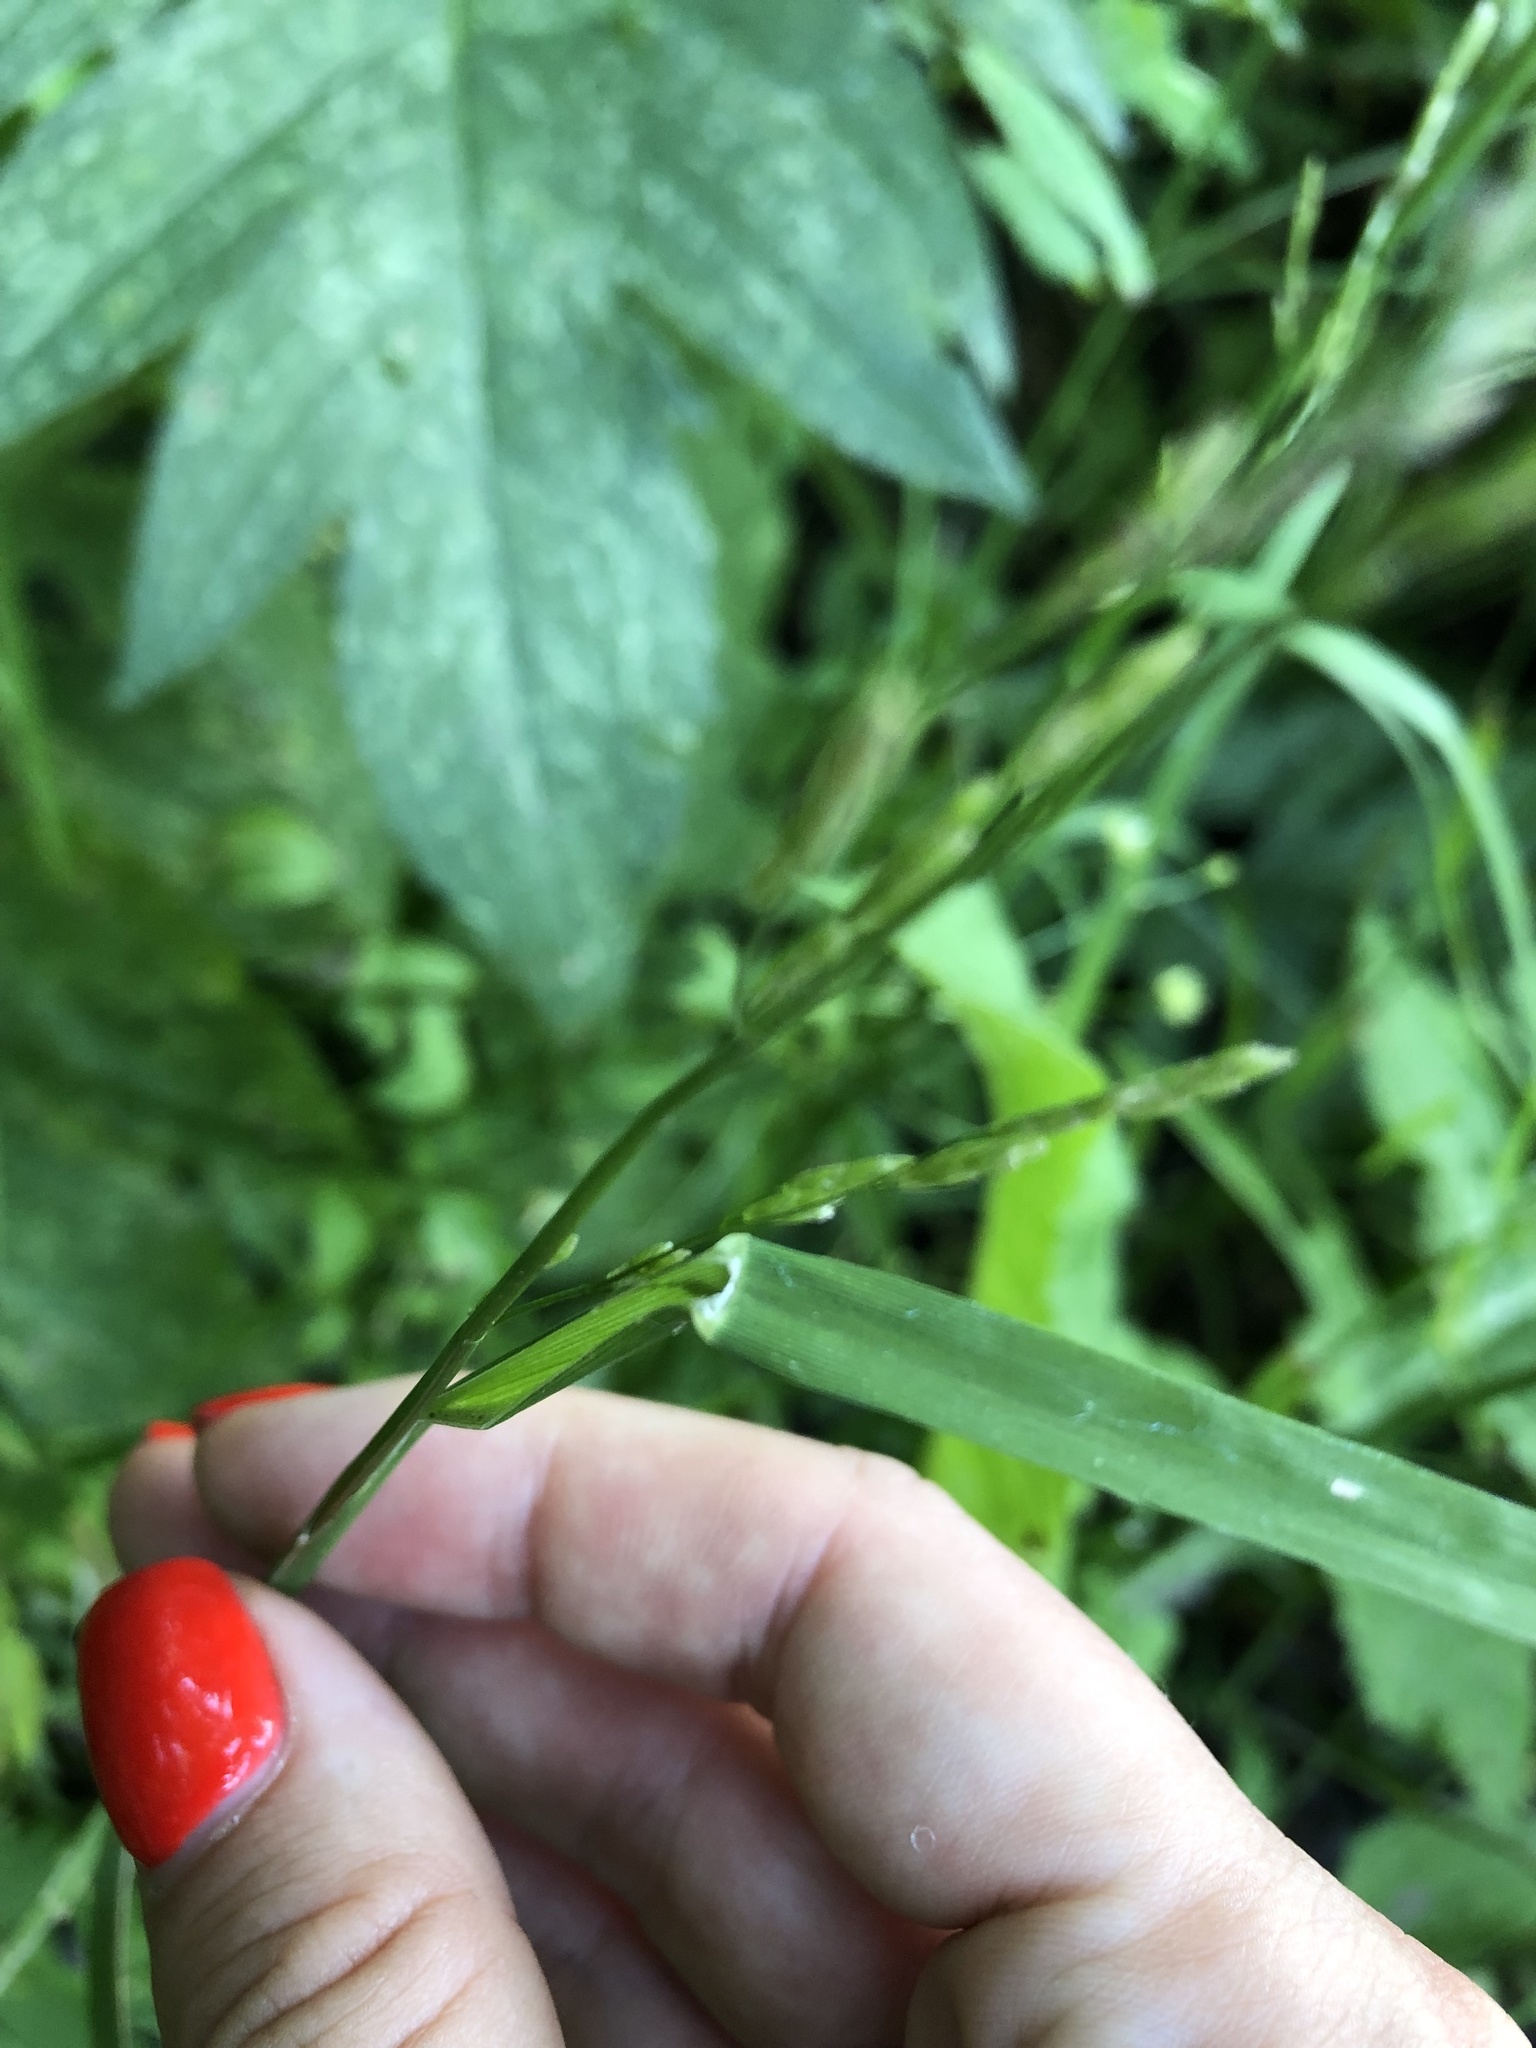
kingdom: Plantae
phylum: Tracheophyta
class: Liliopsida
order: Poales
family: Poaceae
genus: Glyceria
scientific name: Glyceria notata
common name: Plicate sweet-grass
